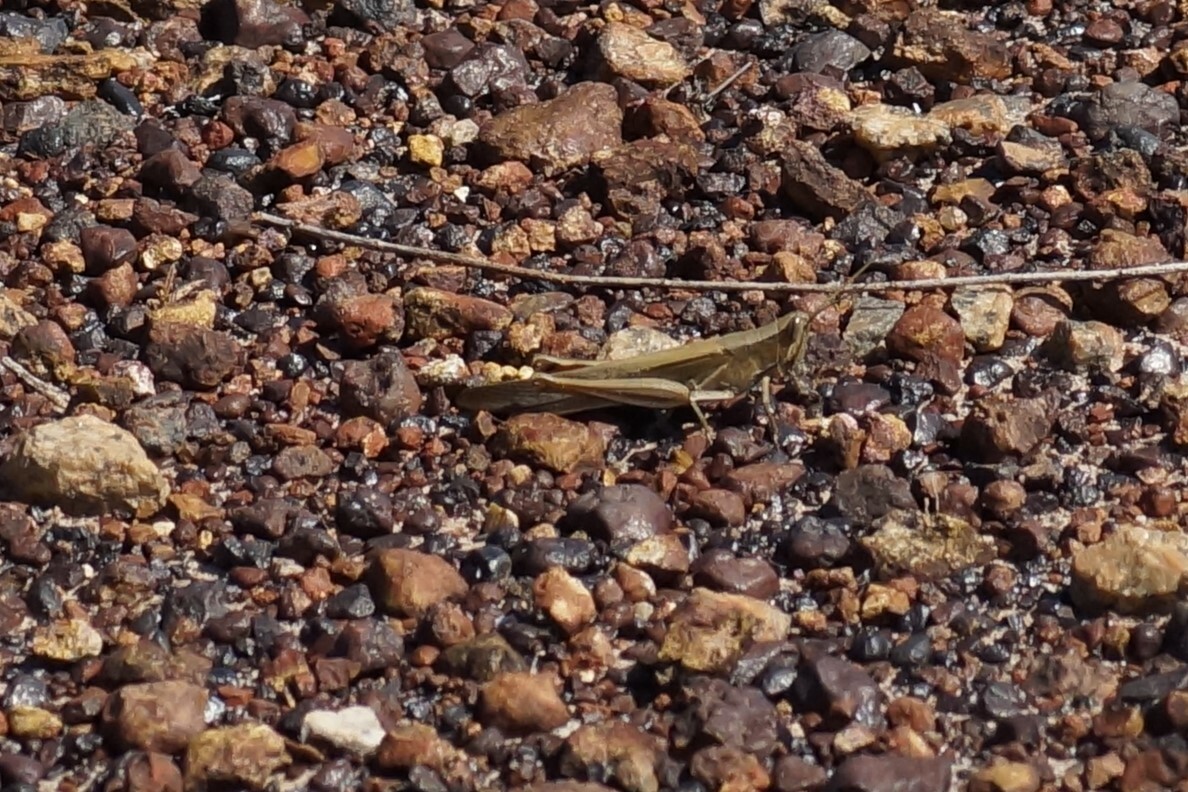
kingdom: Animalia
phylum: Arthropoda
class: Insecta
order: Orthoptera
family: Acrididae
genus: Stenocatantops
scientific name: Stenocatantops vitripennis
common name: Light-brown sharptail
